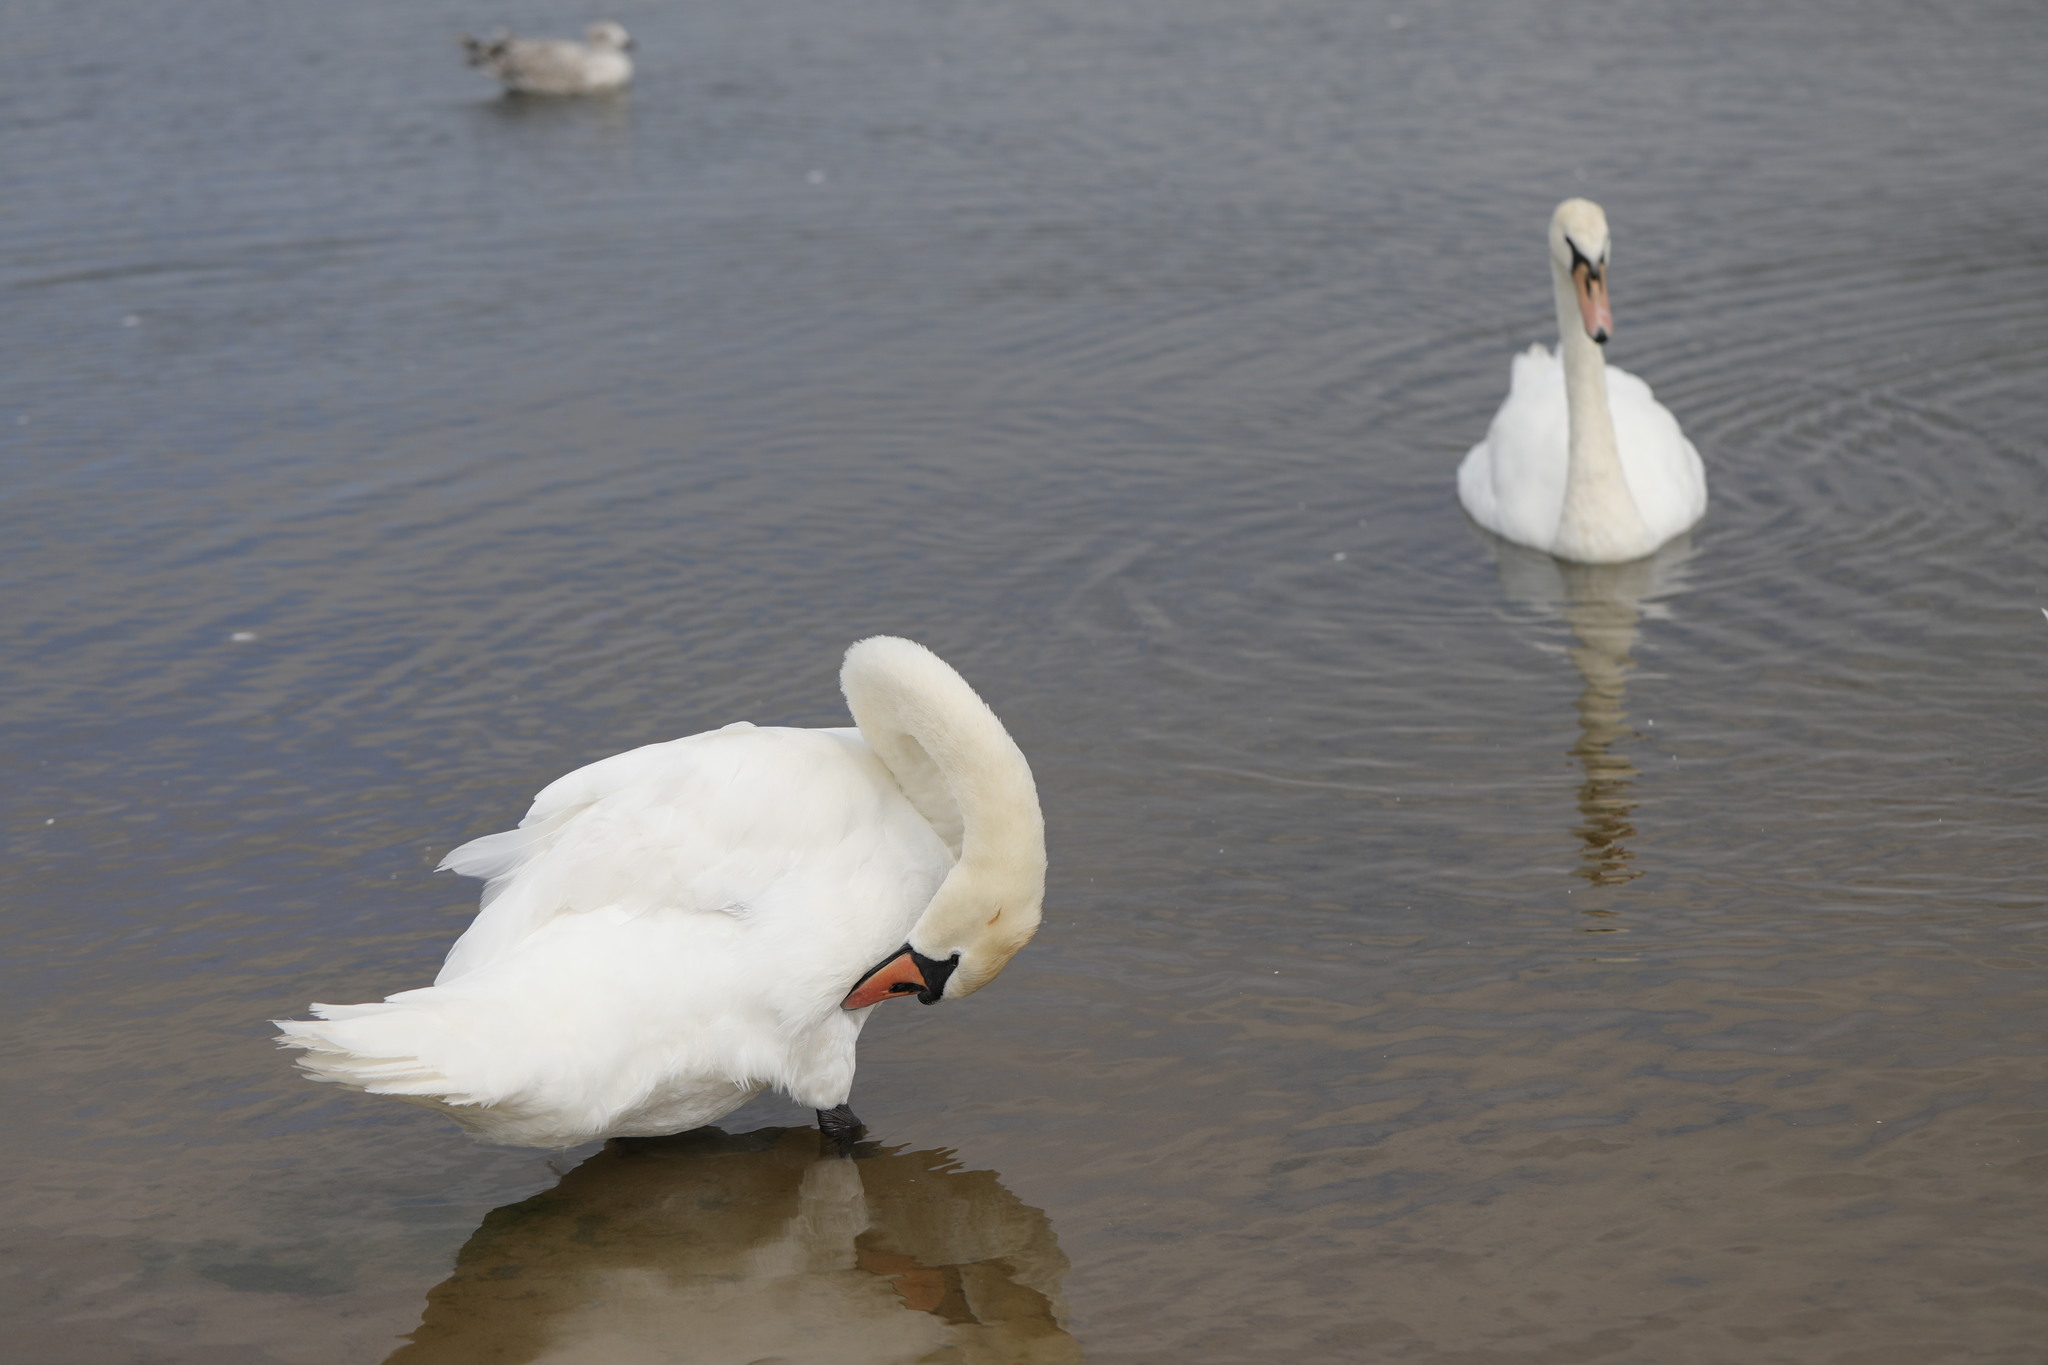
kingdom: Animalia
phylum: Chordata
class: Aves
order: Anseriformes
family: Anatidae
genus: Cygnus
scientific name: Cygnus olor
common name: Mute swan
